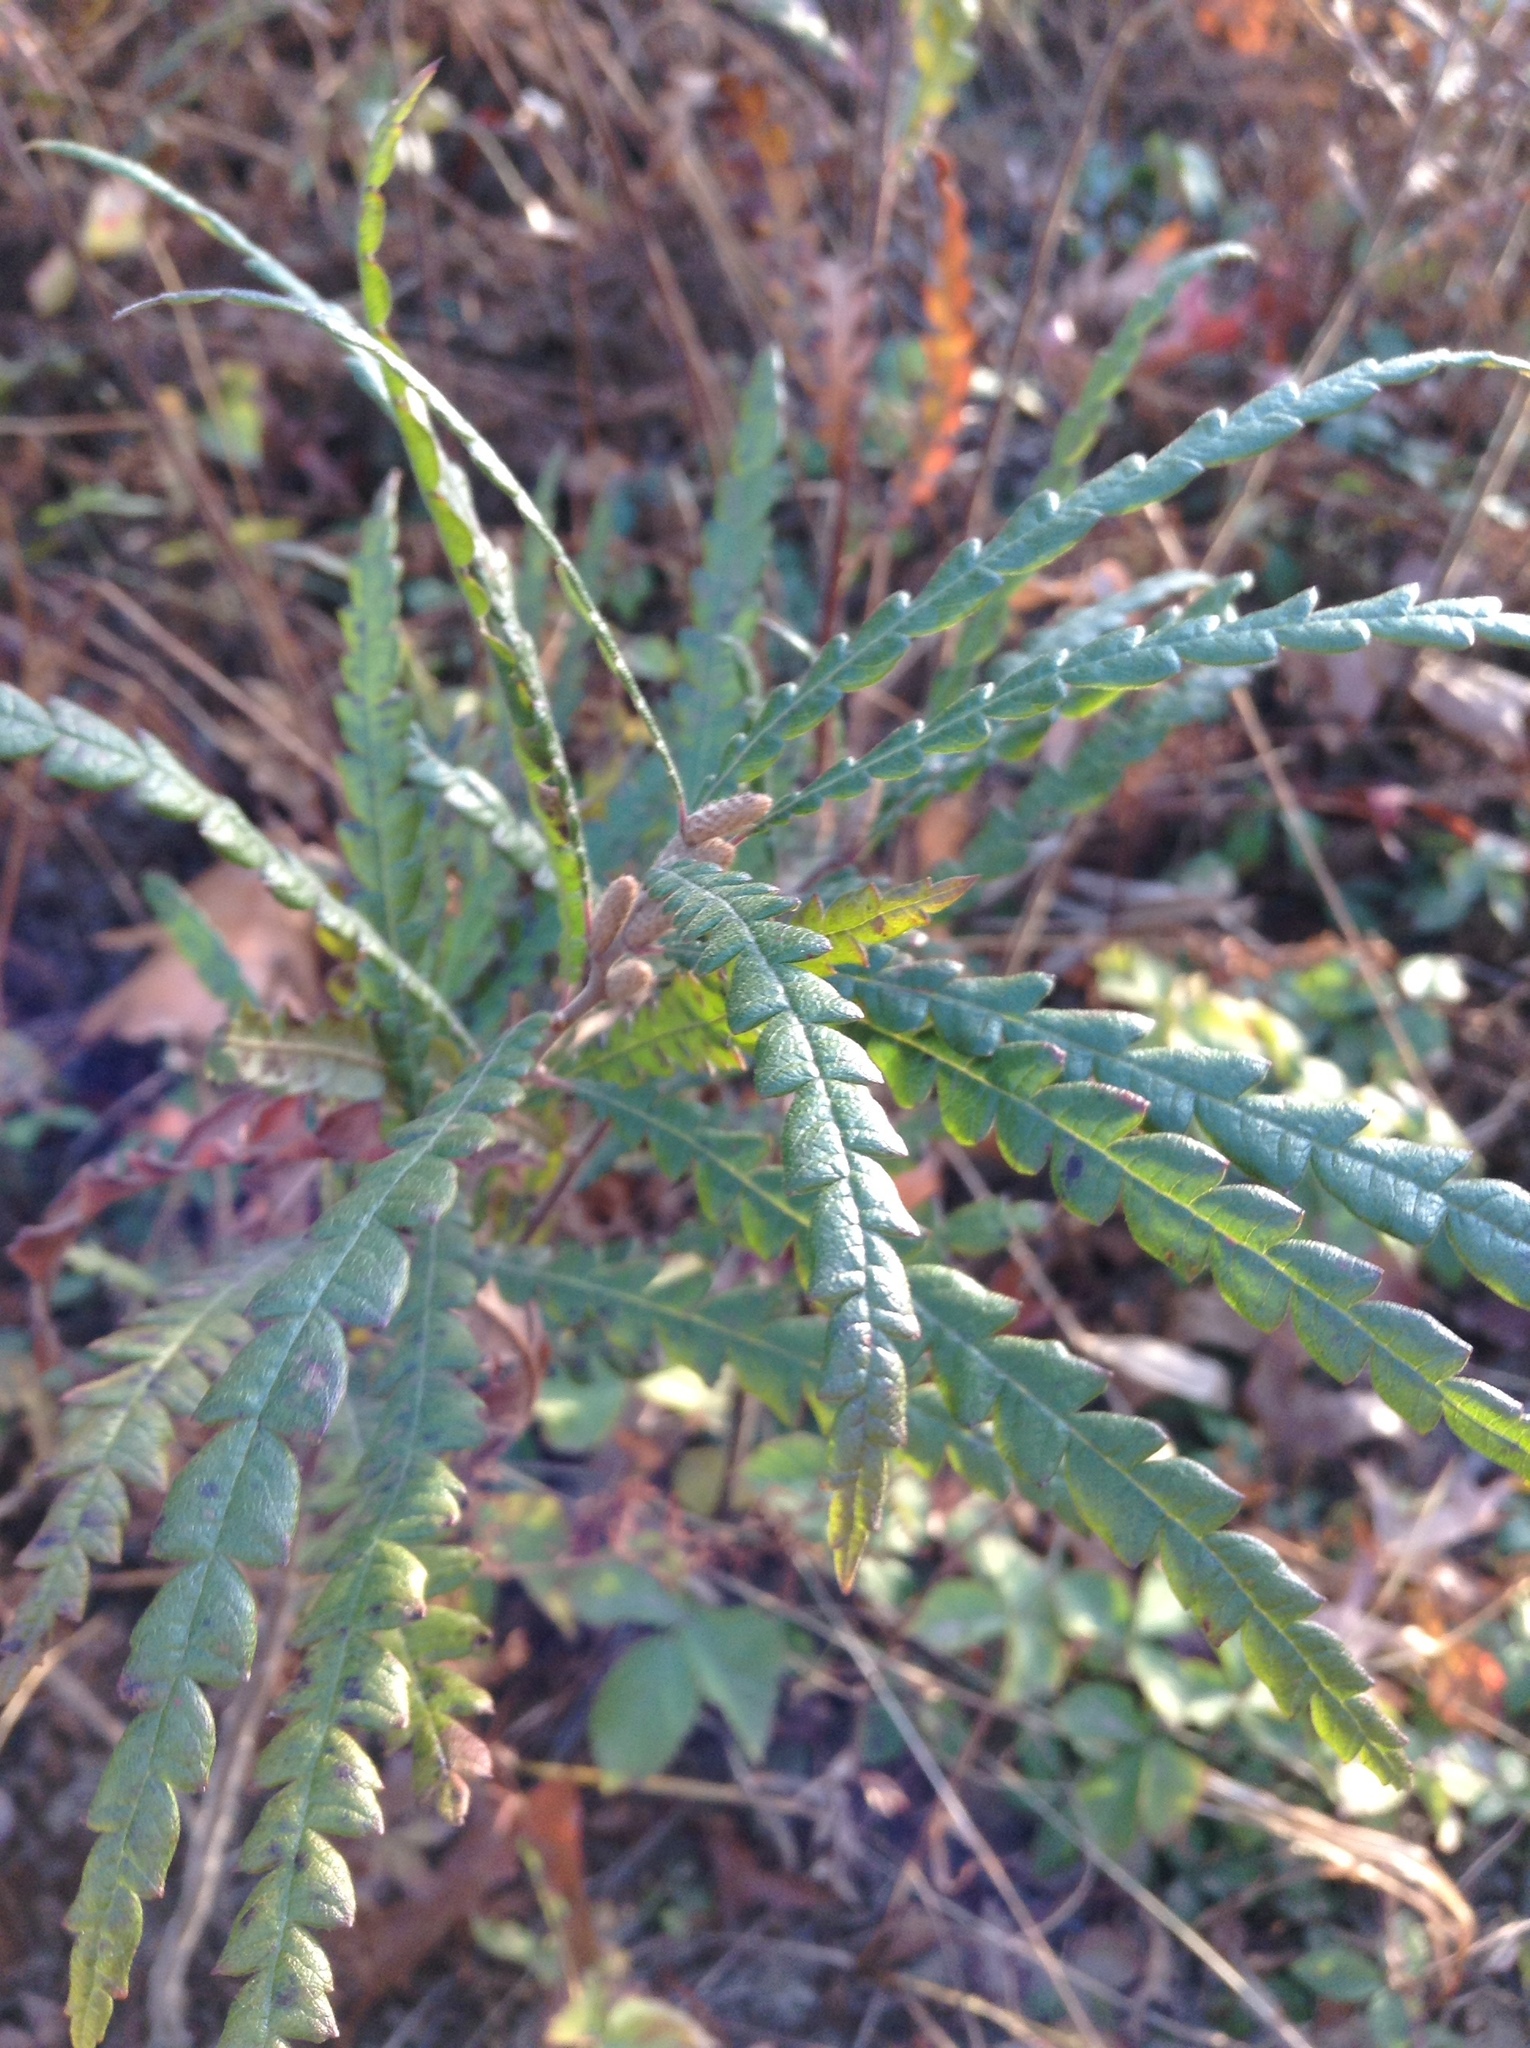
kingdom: Plantae
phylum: Tracheophyta
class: Magnoliopsida
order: Fagales
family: Myricaceae
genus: Comptonia
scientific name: Comptonia peregrina
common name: Sweet-fern
